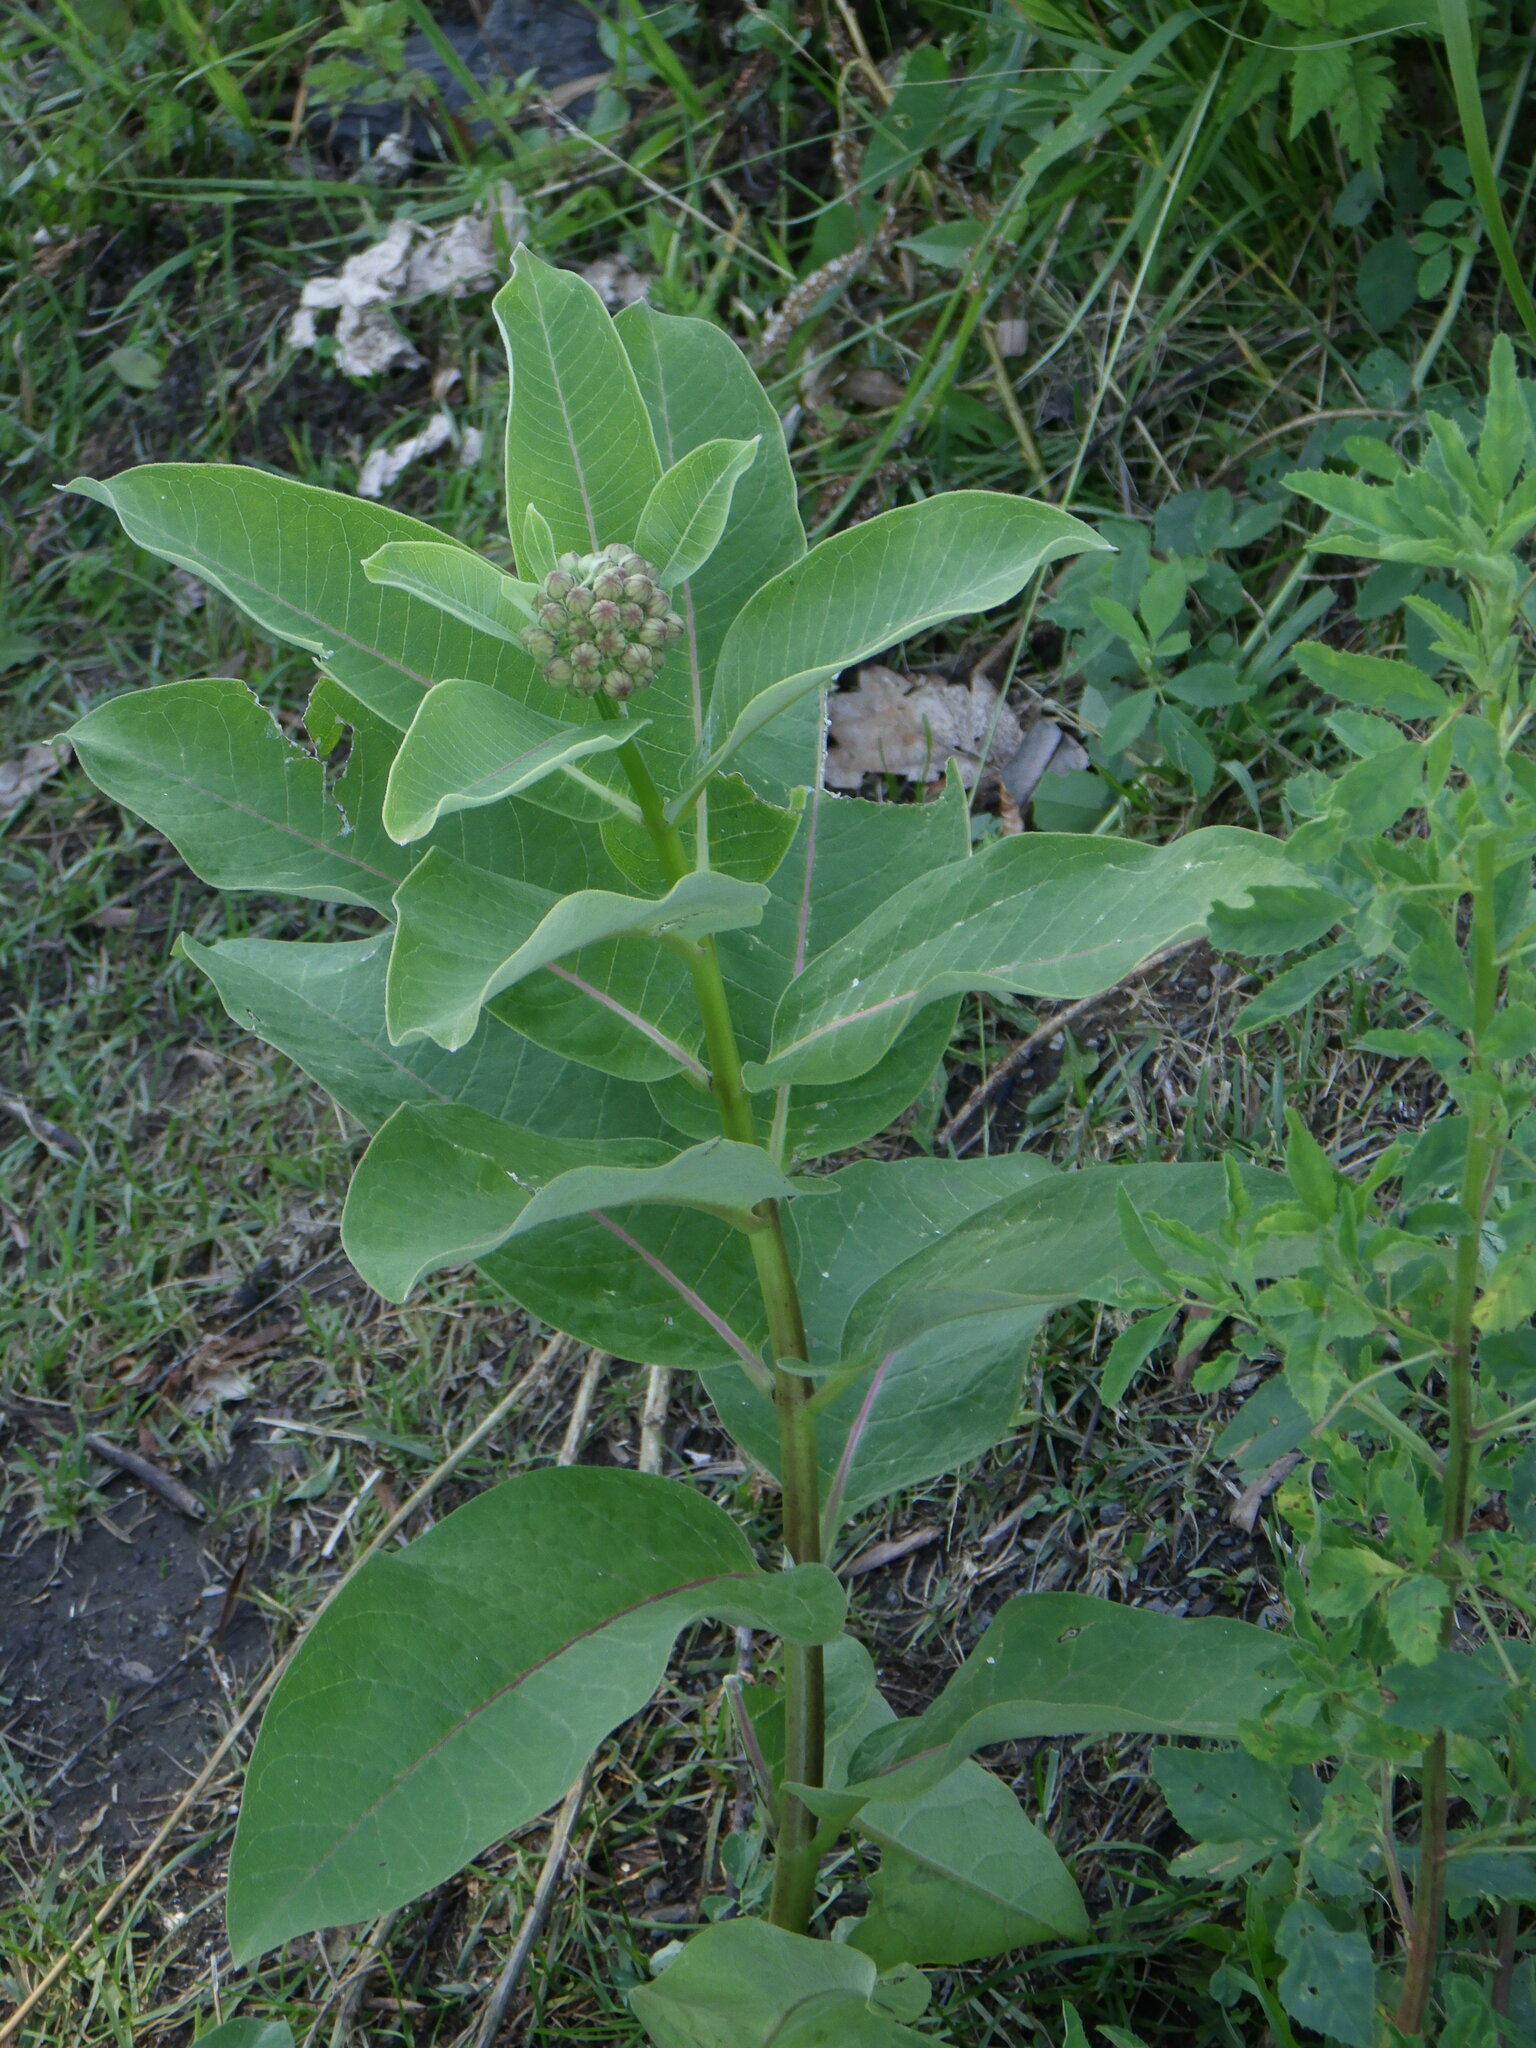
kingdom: Plantae
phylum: Tracheophyta
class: Magnoliopsida
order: Gentianales
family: Apocynaceae
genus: Asclepias
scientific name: Asclepias syriaca
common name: Common milkweed
